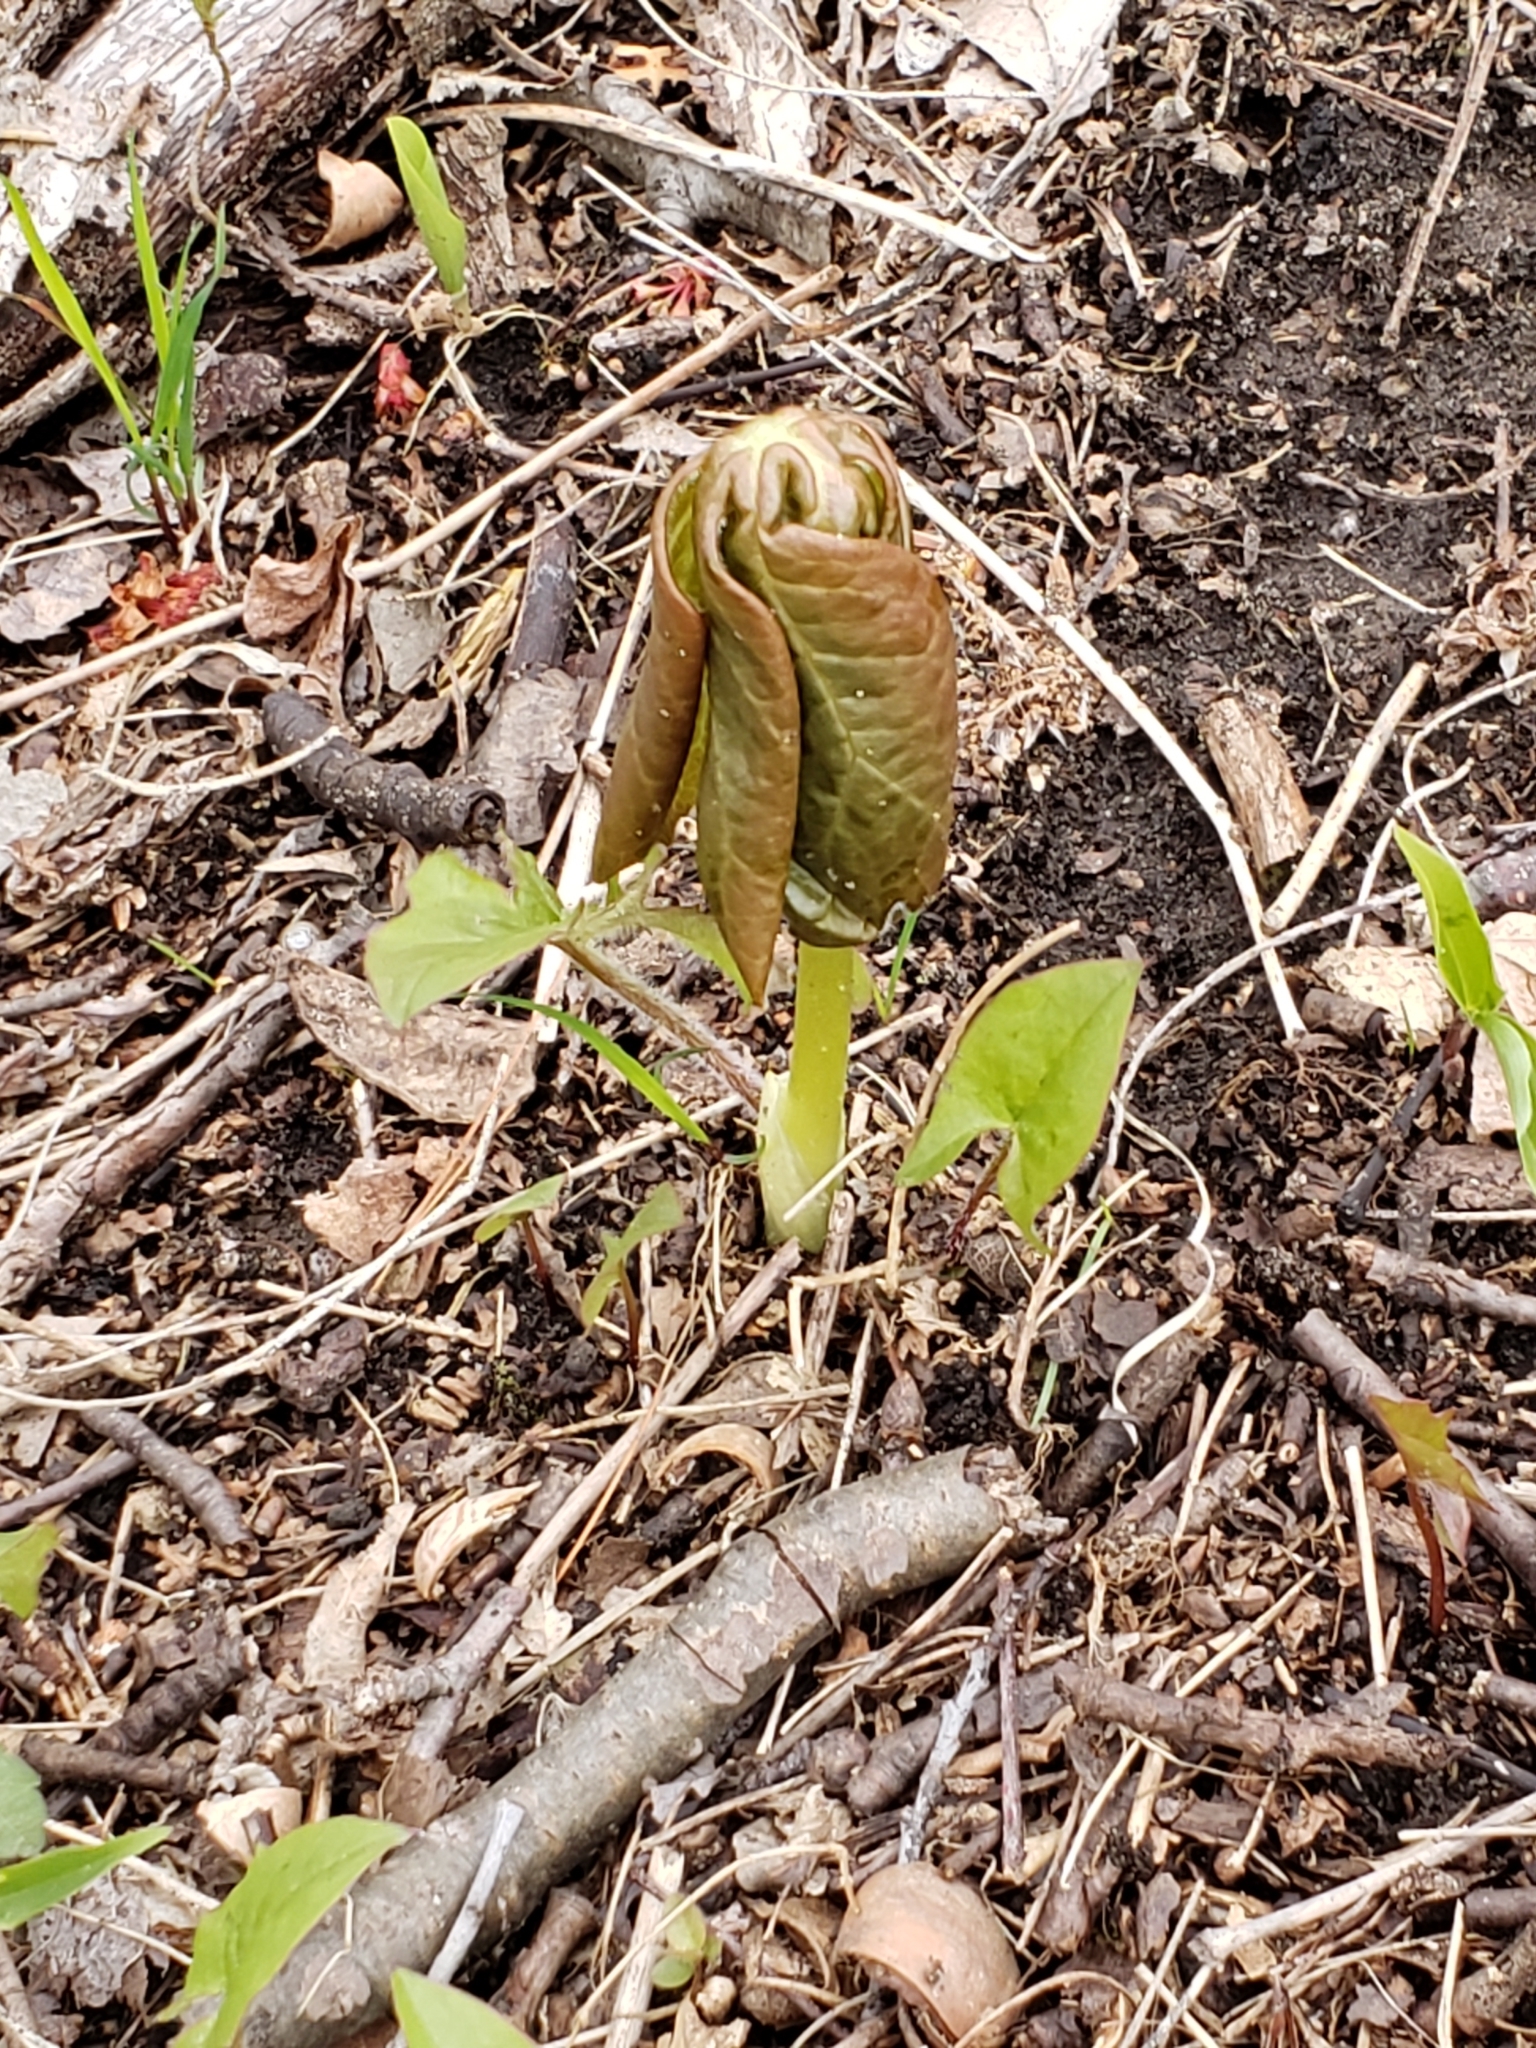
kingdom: Plantae
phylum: Tracheophyta
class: Magnoliopsida
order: Ranunculales
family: Berberidaceae
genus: Podophyllum
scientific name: Podophyllum peltatum
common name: Wild mandrake
